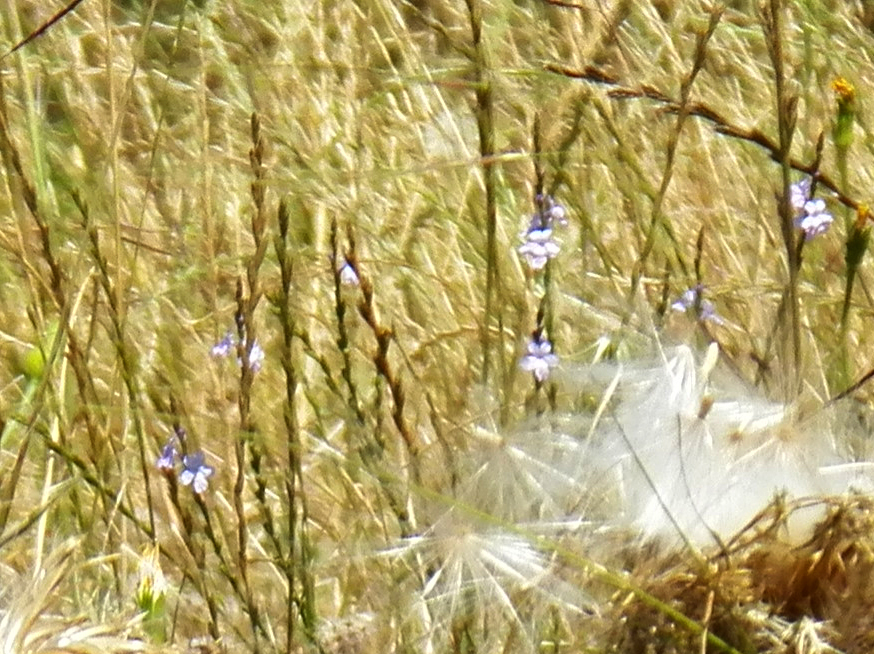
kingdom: Plantae
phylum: Tracheophyta
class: Magnoliopsida
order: Lamiales
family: Verbenaceae
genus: Verbena
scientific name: Verbena halei
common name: Texas vervain
